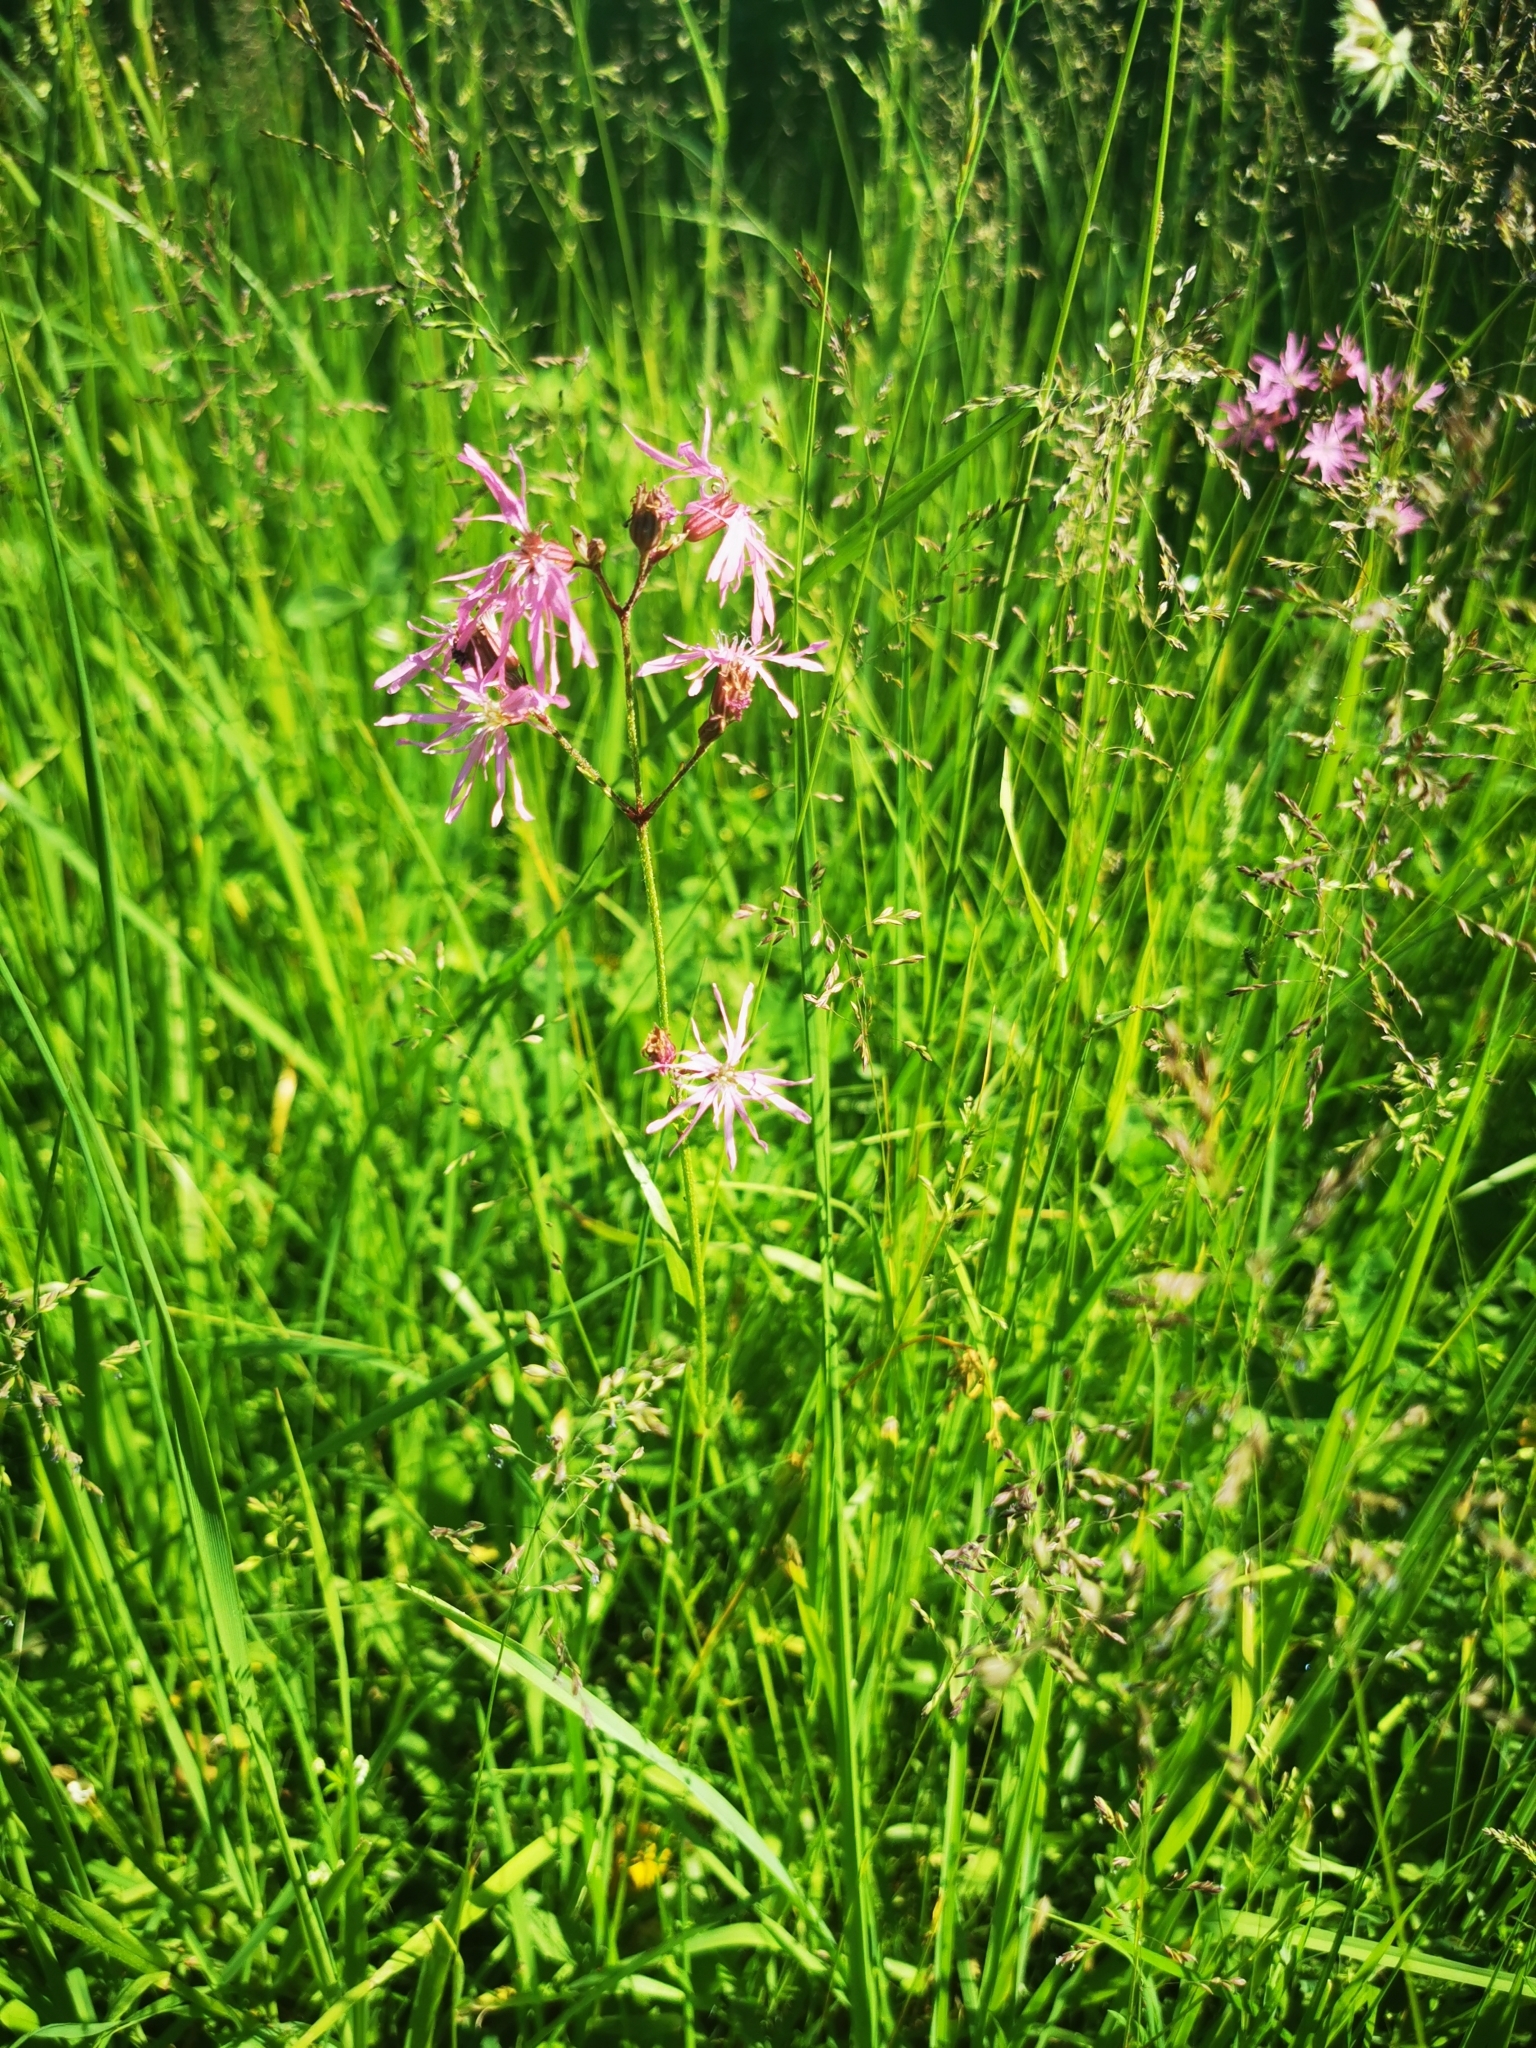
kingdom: Plantae
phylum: Tracheophyta
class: Magnoliopsida
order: Caryophyllales
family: Caryophyllaceae
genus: Silene
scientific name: Silene flos-cuculi
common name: Ragged-robin
